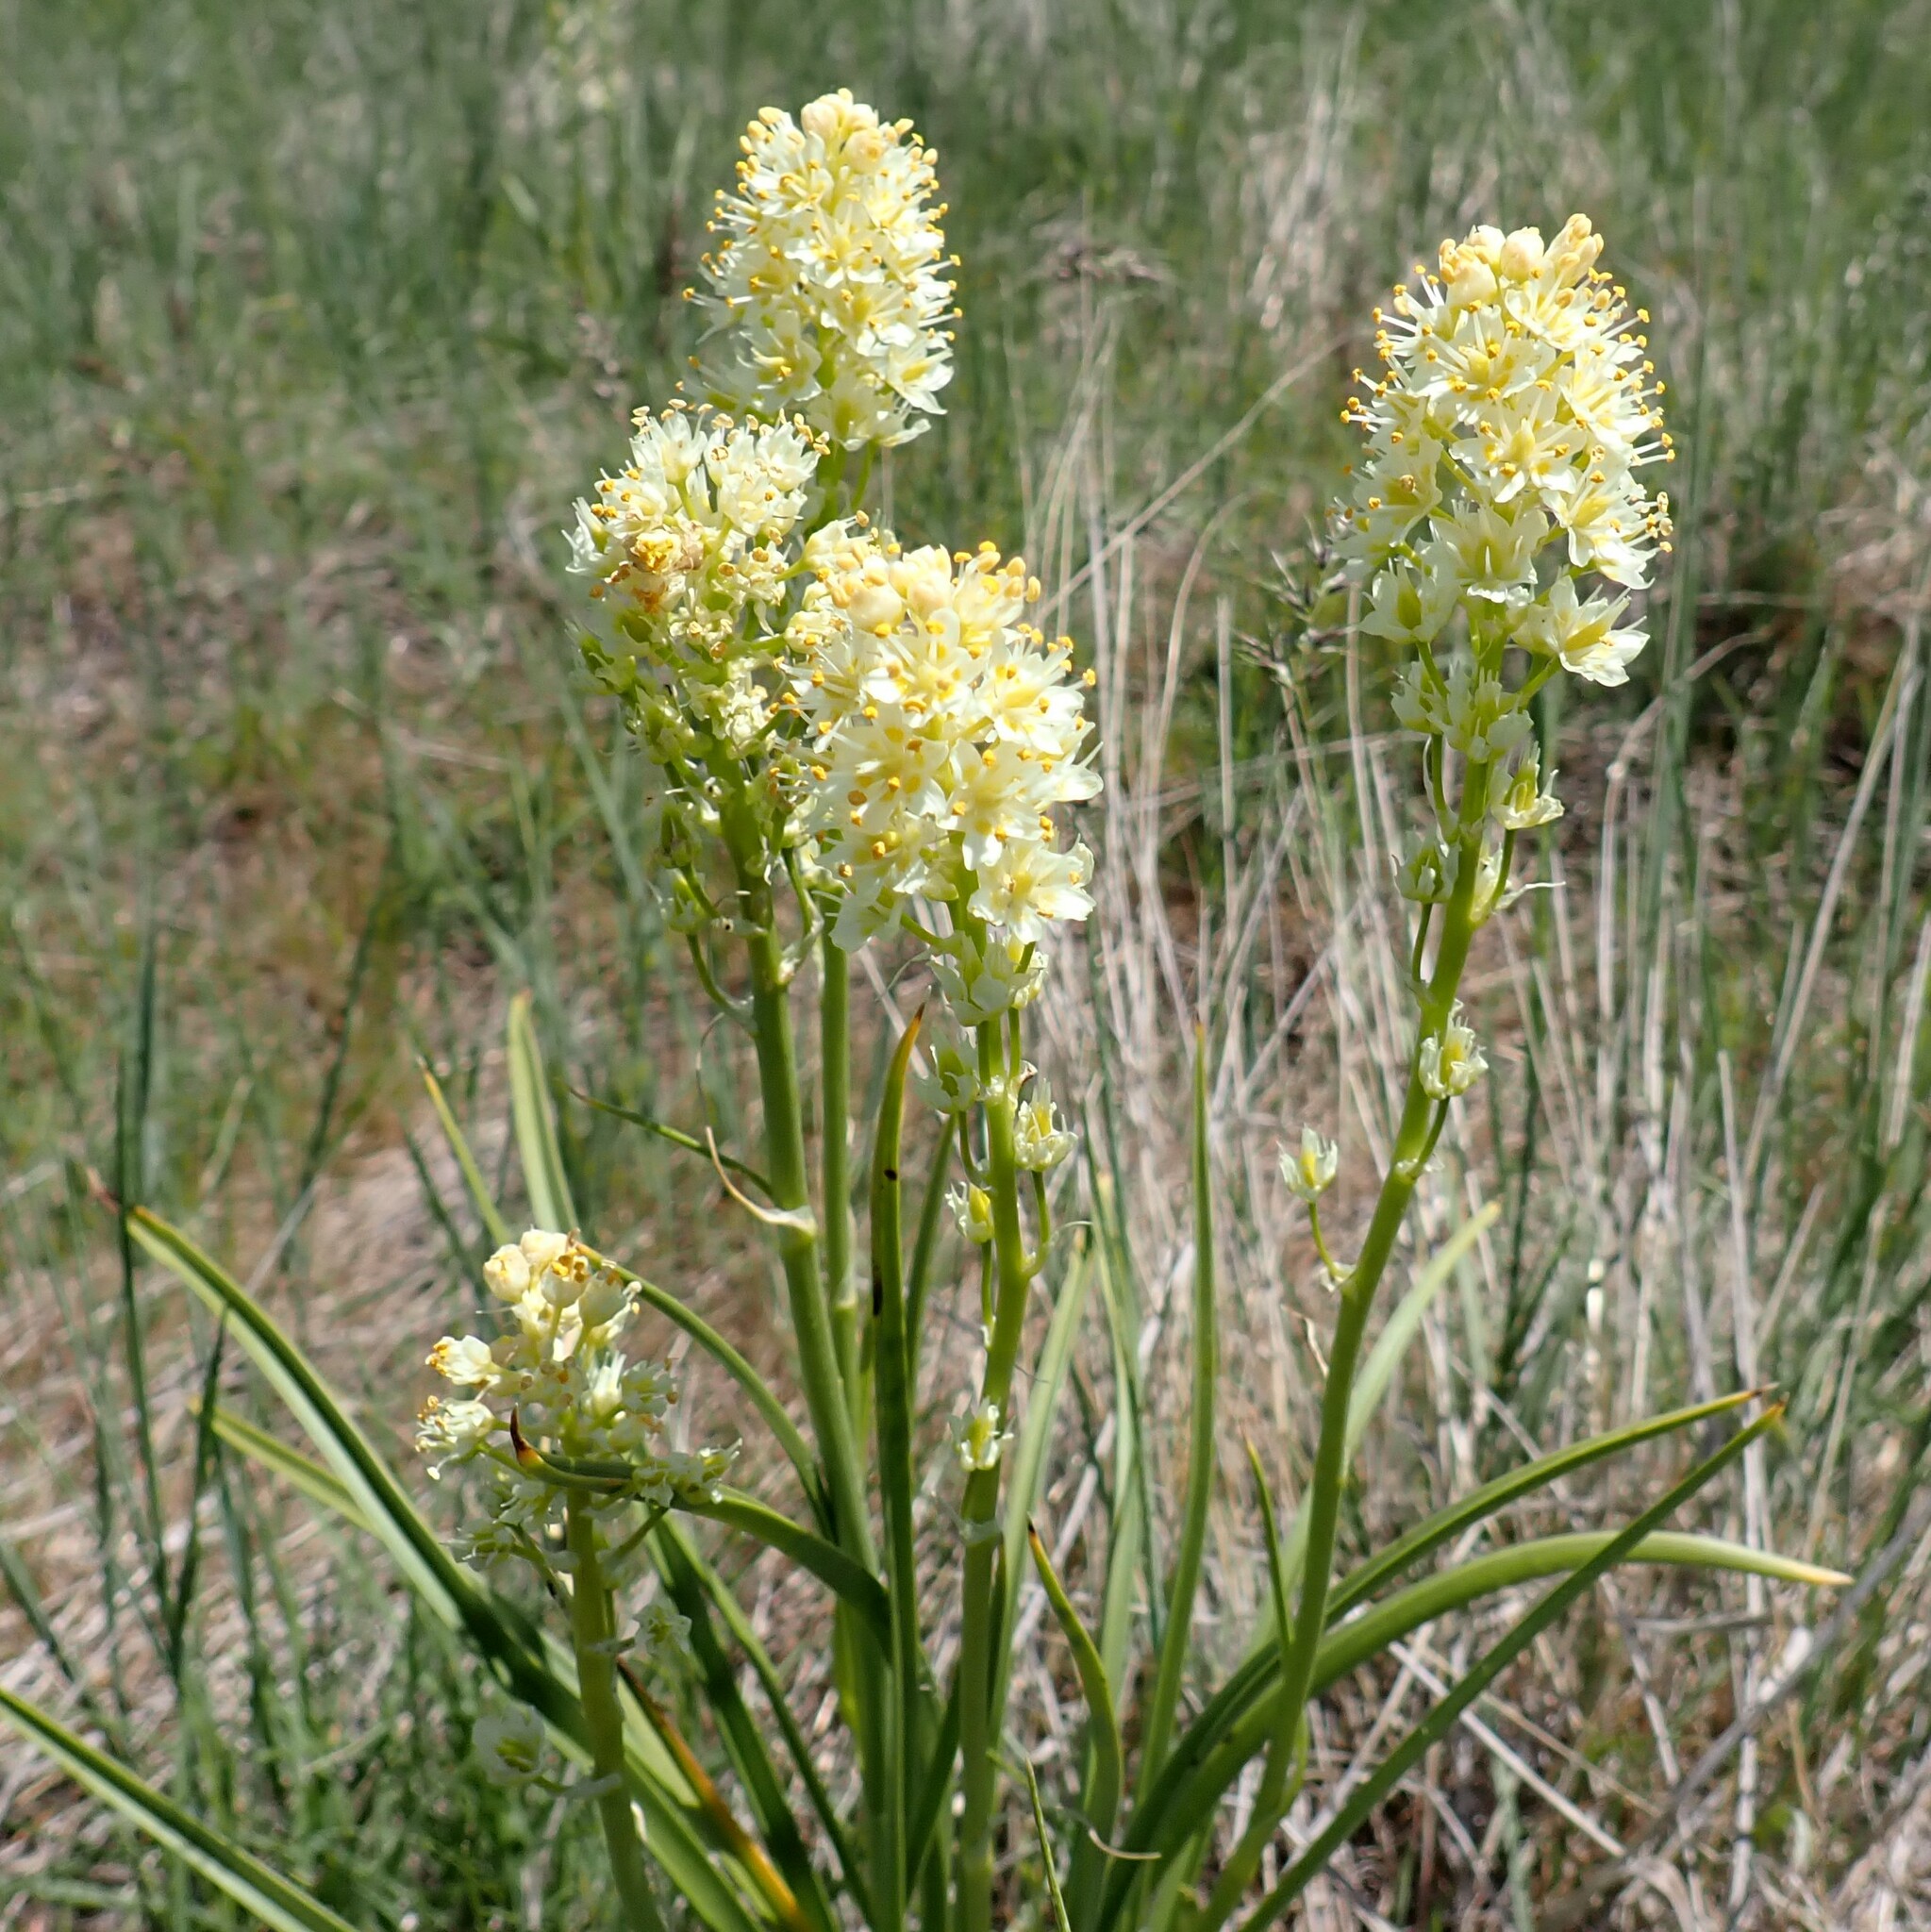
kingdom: Plantae
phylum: Tracheophyta
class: Liliopsida
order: Liliales
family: Melanthiaceae
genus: Toxicoscordion
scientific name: Toxicoscordion venenosum
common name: Meadow death camas
